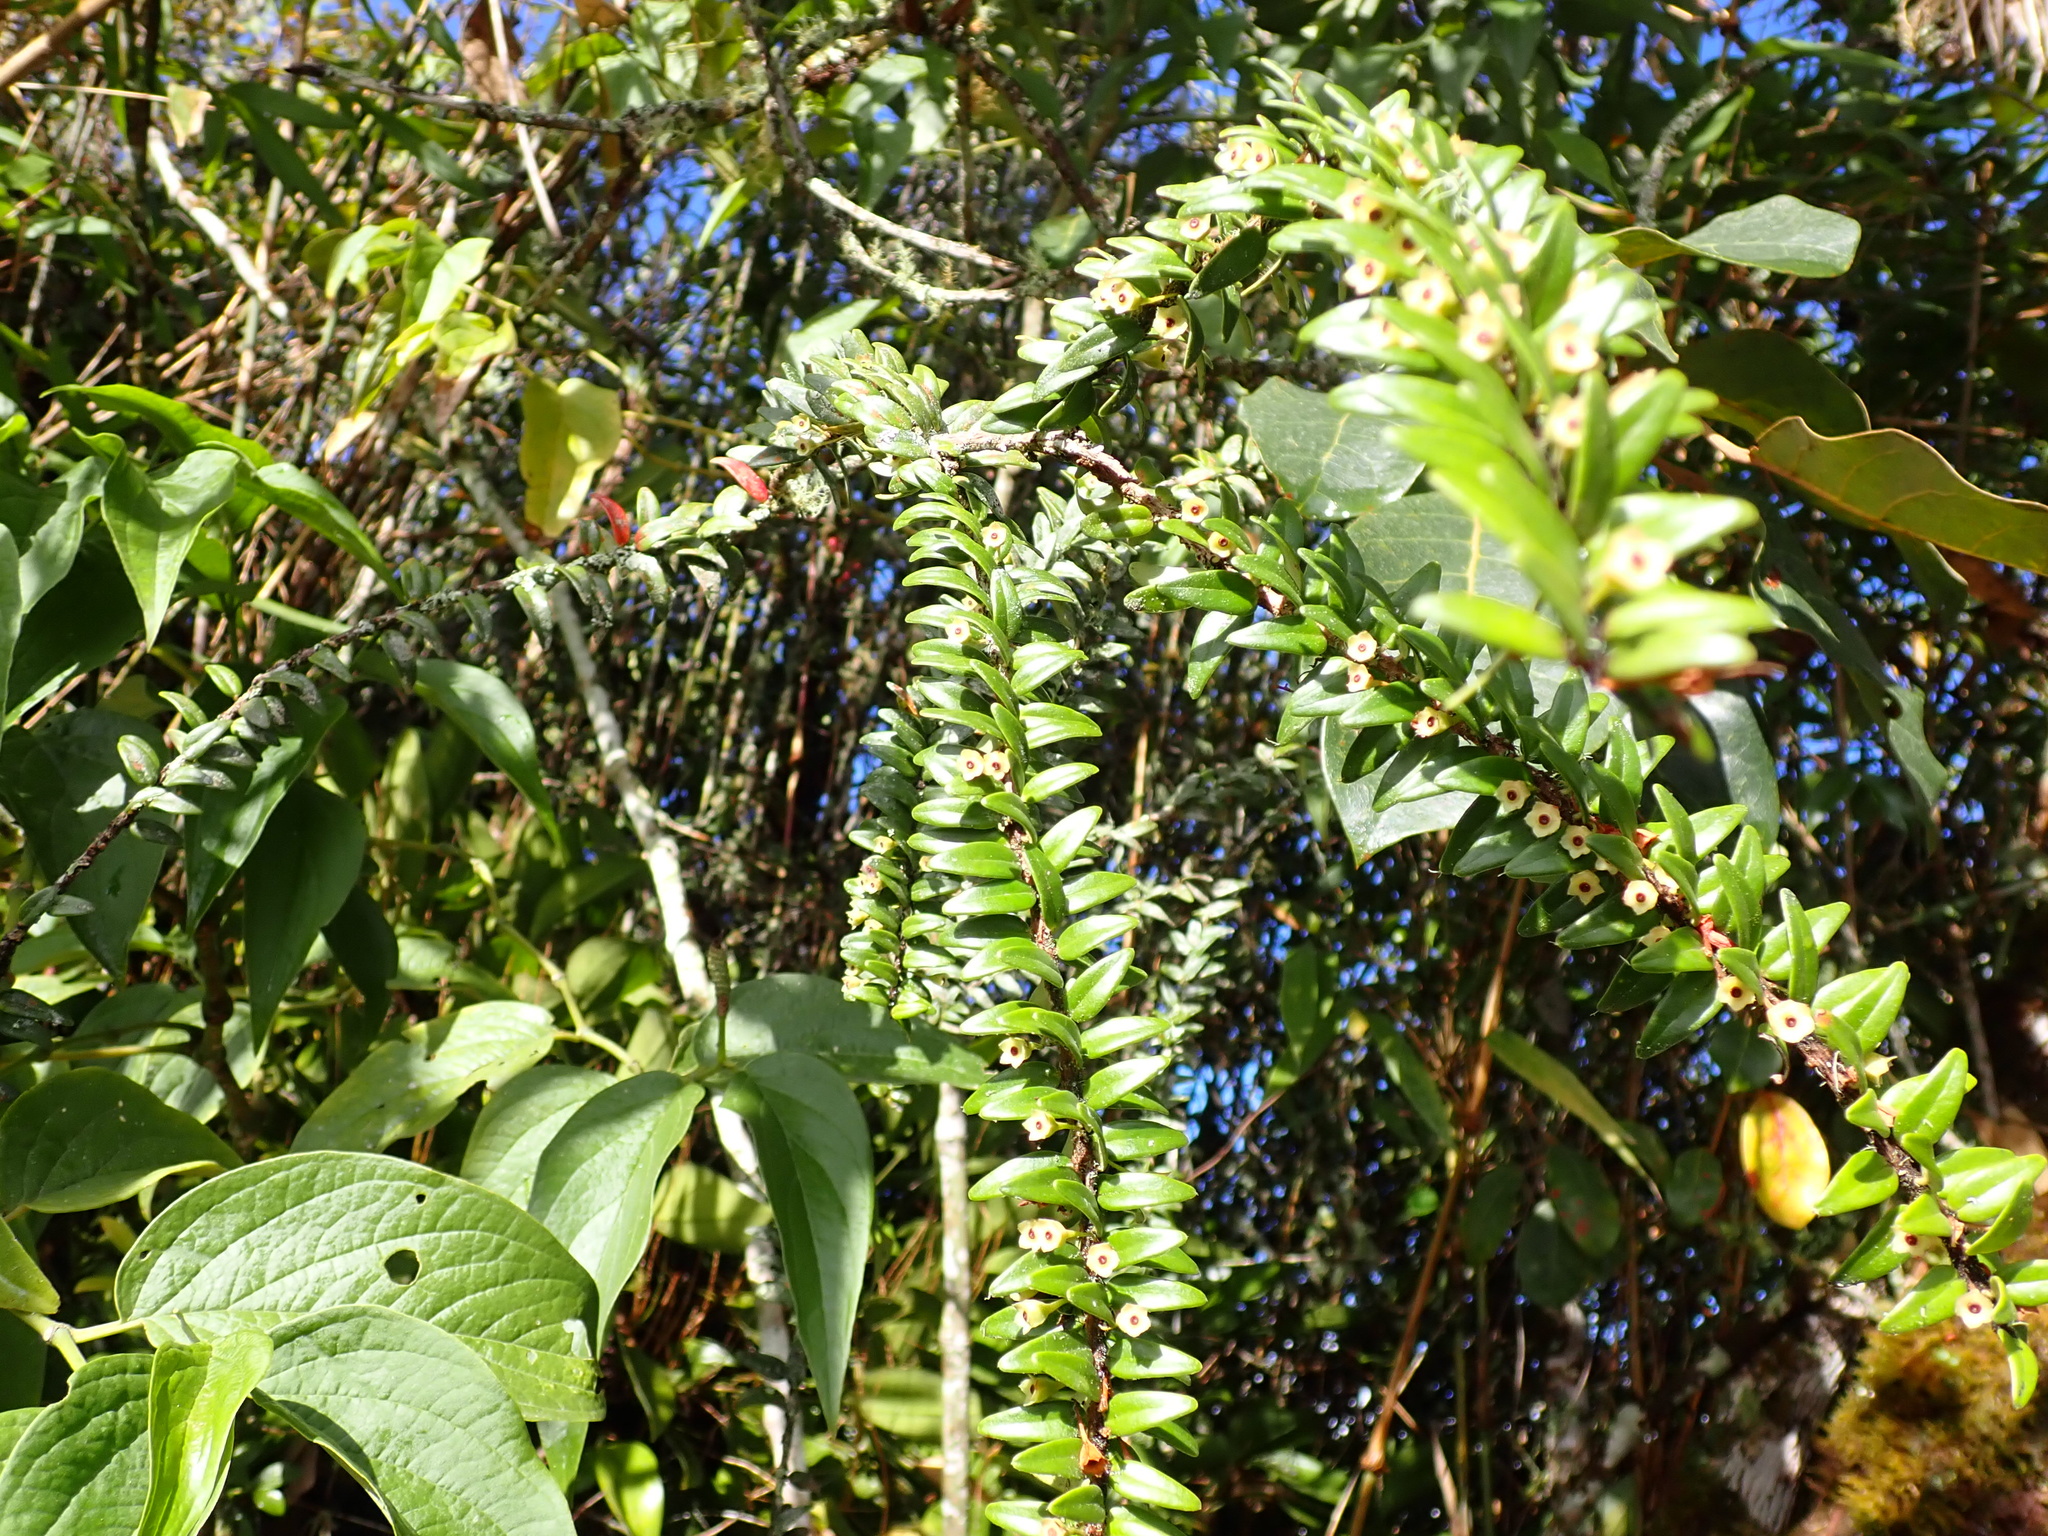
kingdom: Plantae
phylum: Tracheophyta
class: Magnoliopsida
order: Ericales
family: Ericaceae
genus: Demosthenesia
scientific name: Demosthenesia pearcei
